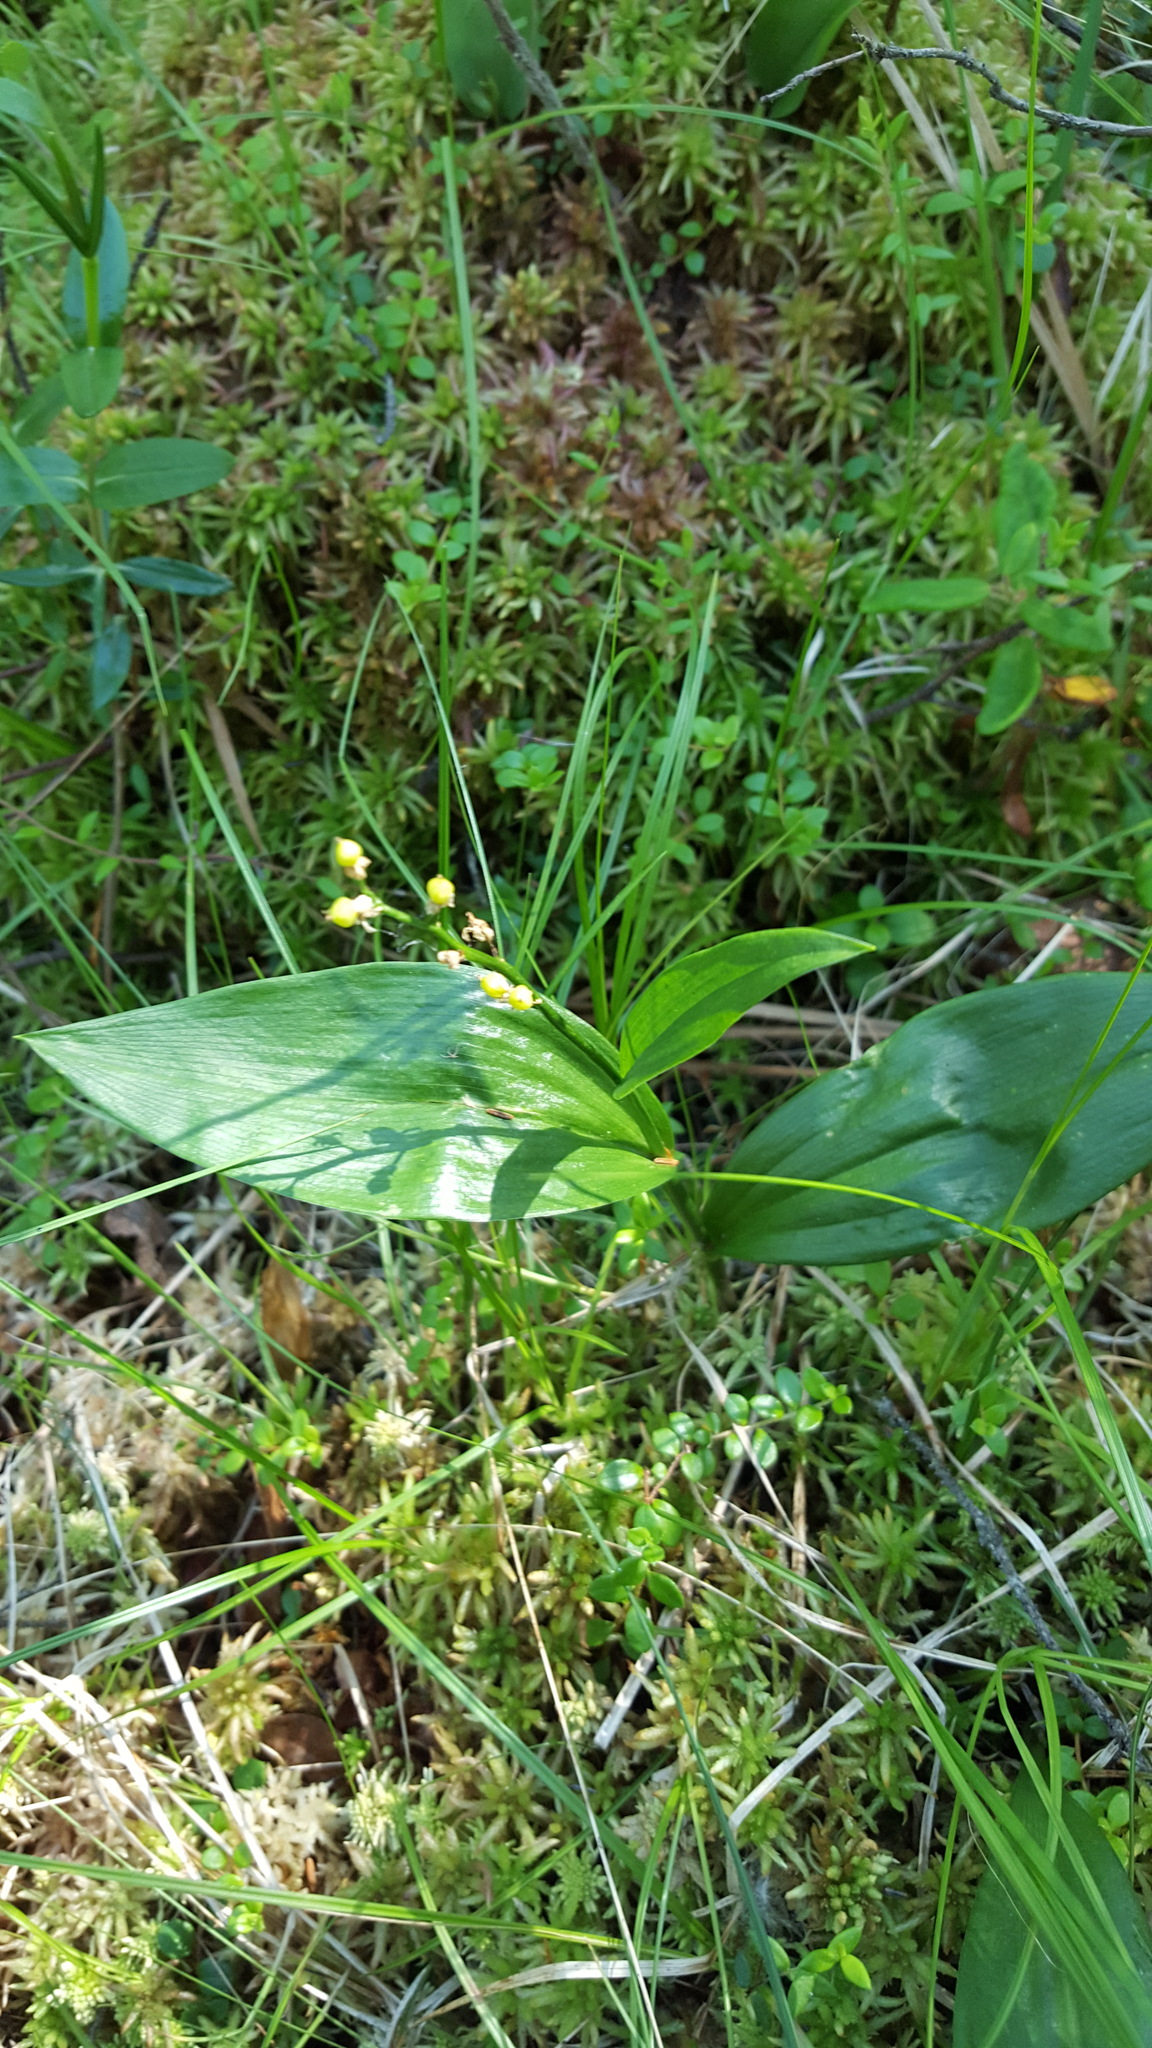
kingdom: Plantae
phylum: Tracheophyta
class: Liliopsida
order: Asparagales
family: Asparagaceae
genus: Maianthemum
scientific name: Maianthemum trifolium
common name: Swamp false solomon's seal
